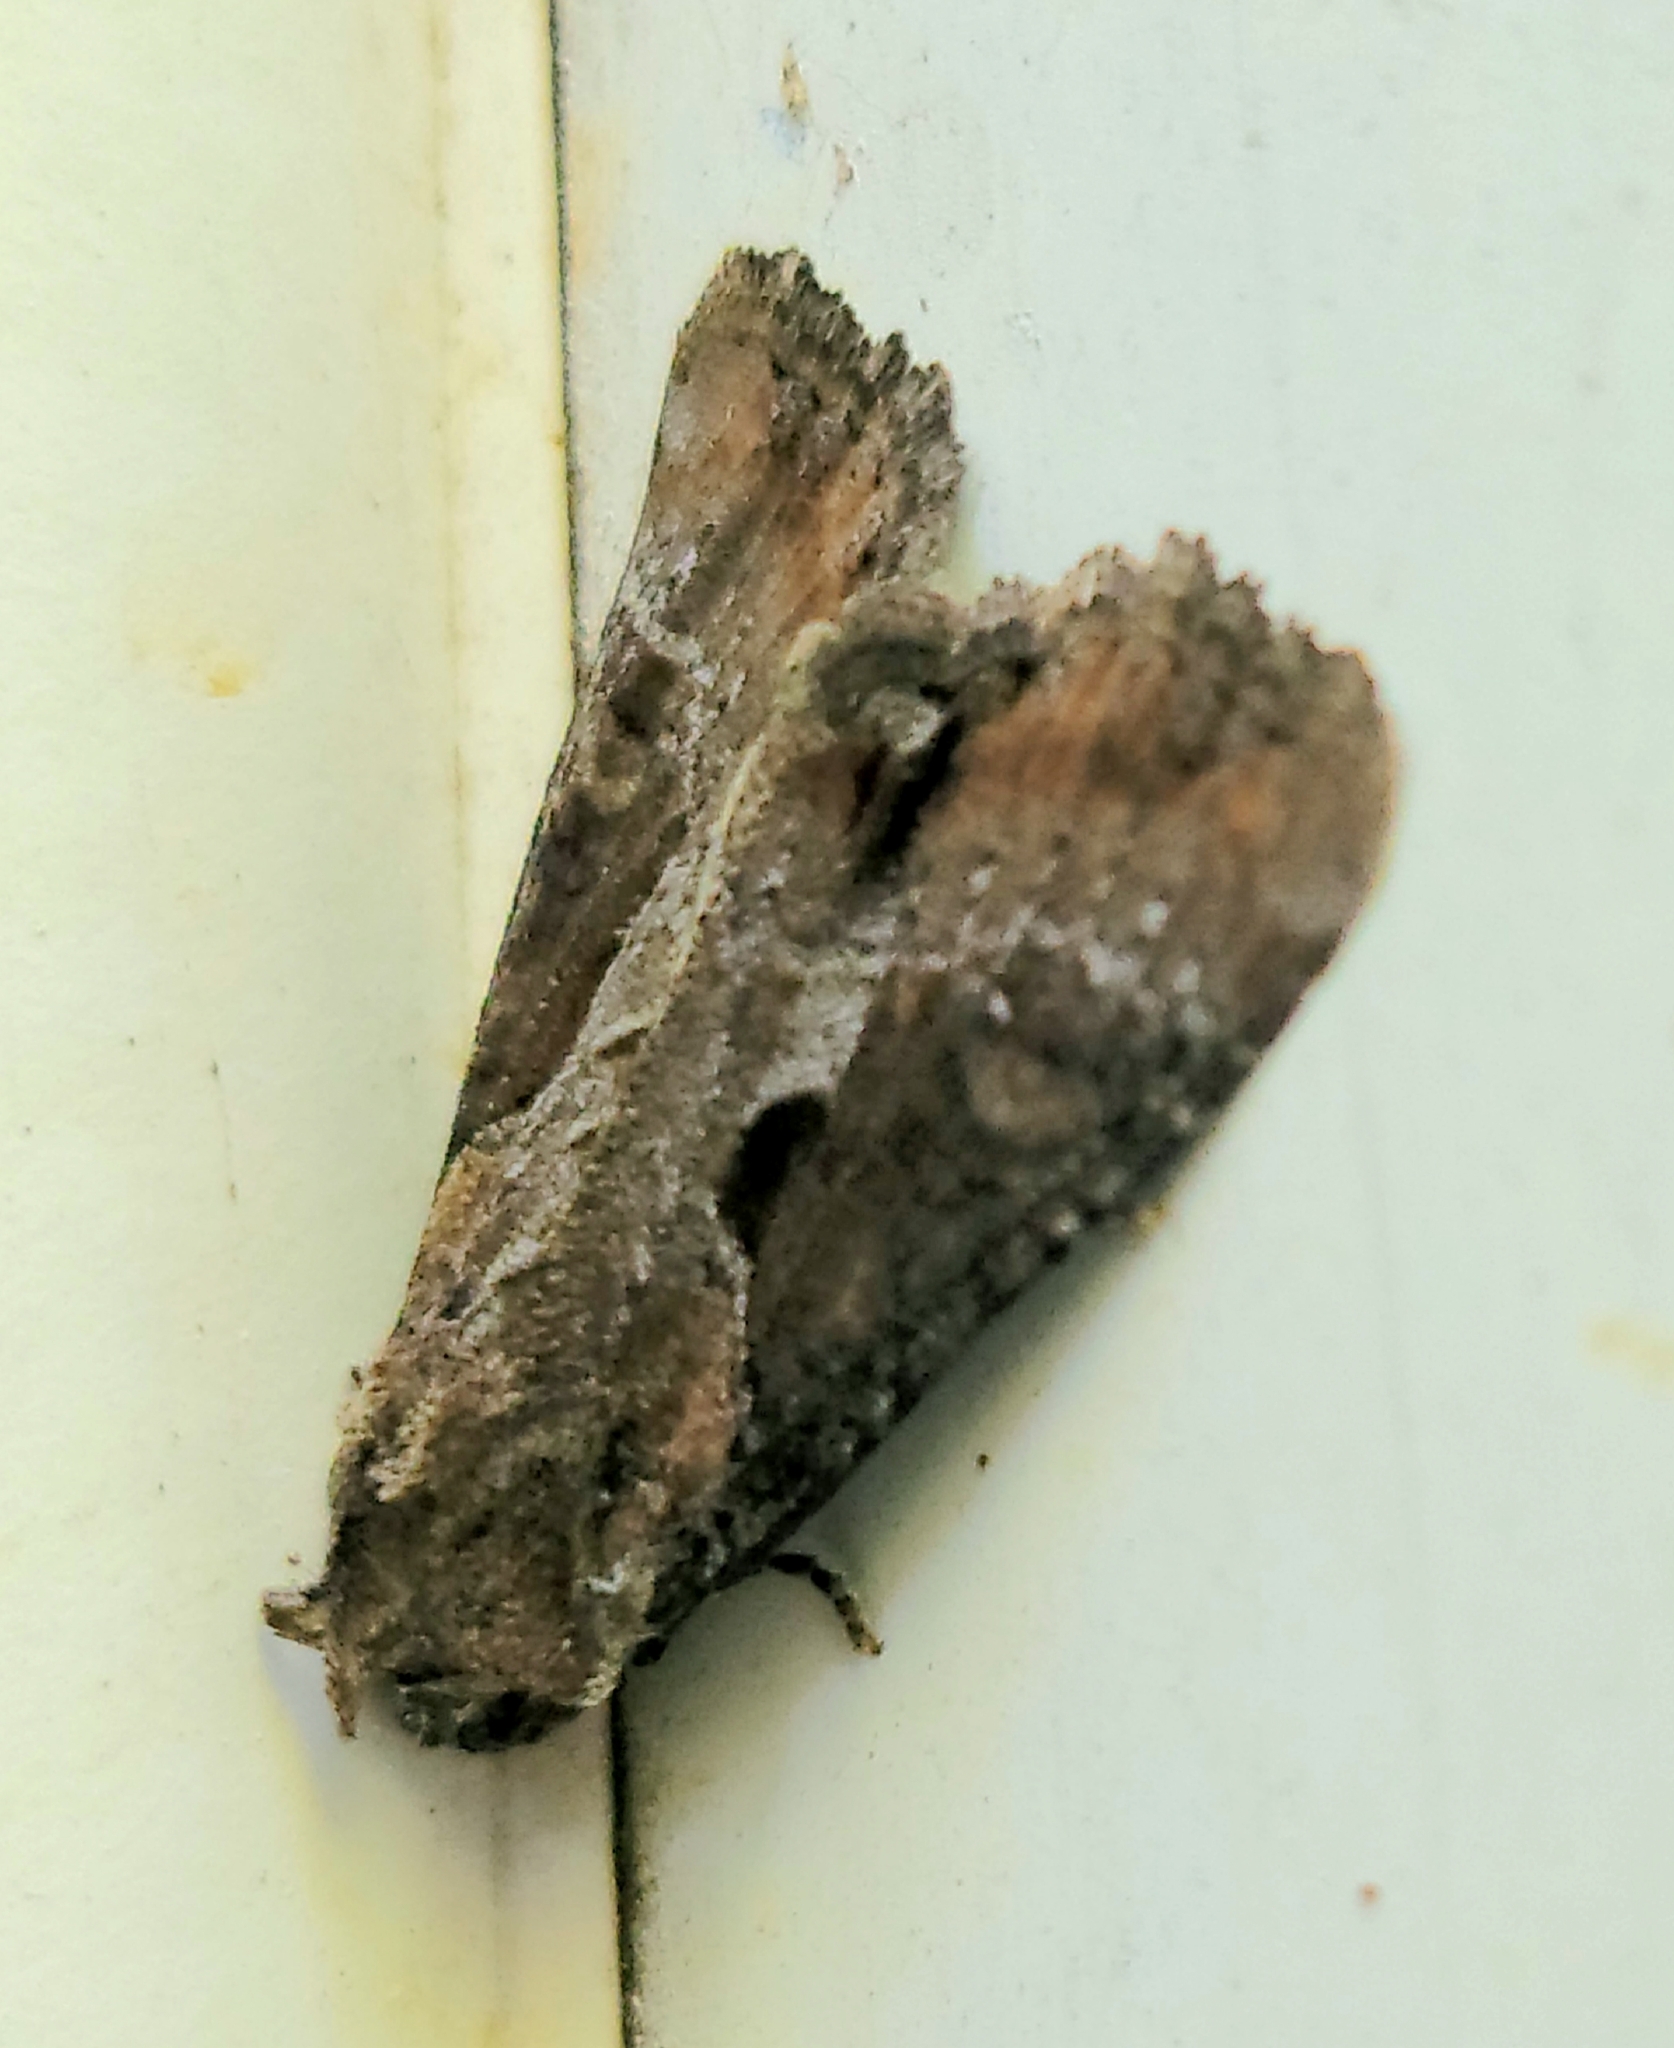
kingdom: Animalia
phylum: Arthropoda
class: Insecta
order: Lepidoptera
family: Noctuidae
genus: Lateroligia
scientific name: Lateroligia ophiogramma
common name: Double lobed
